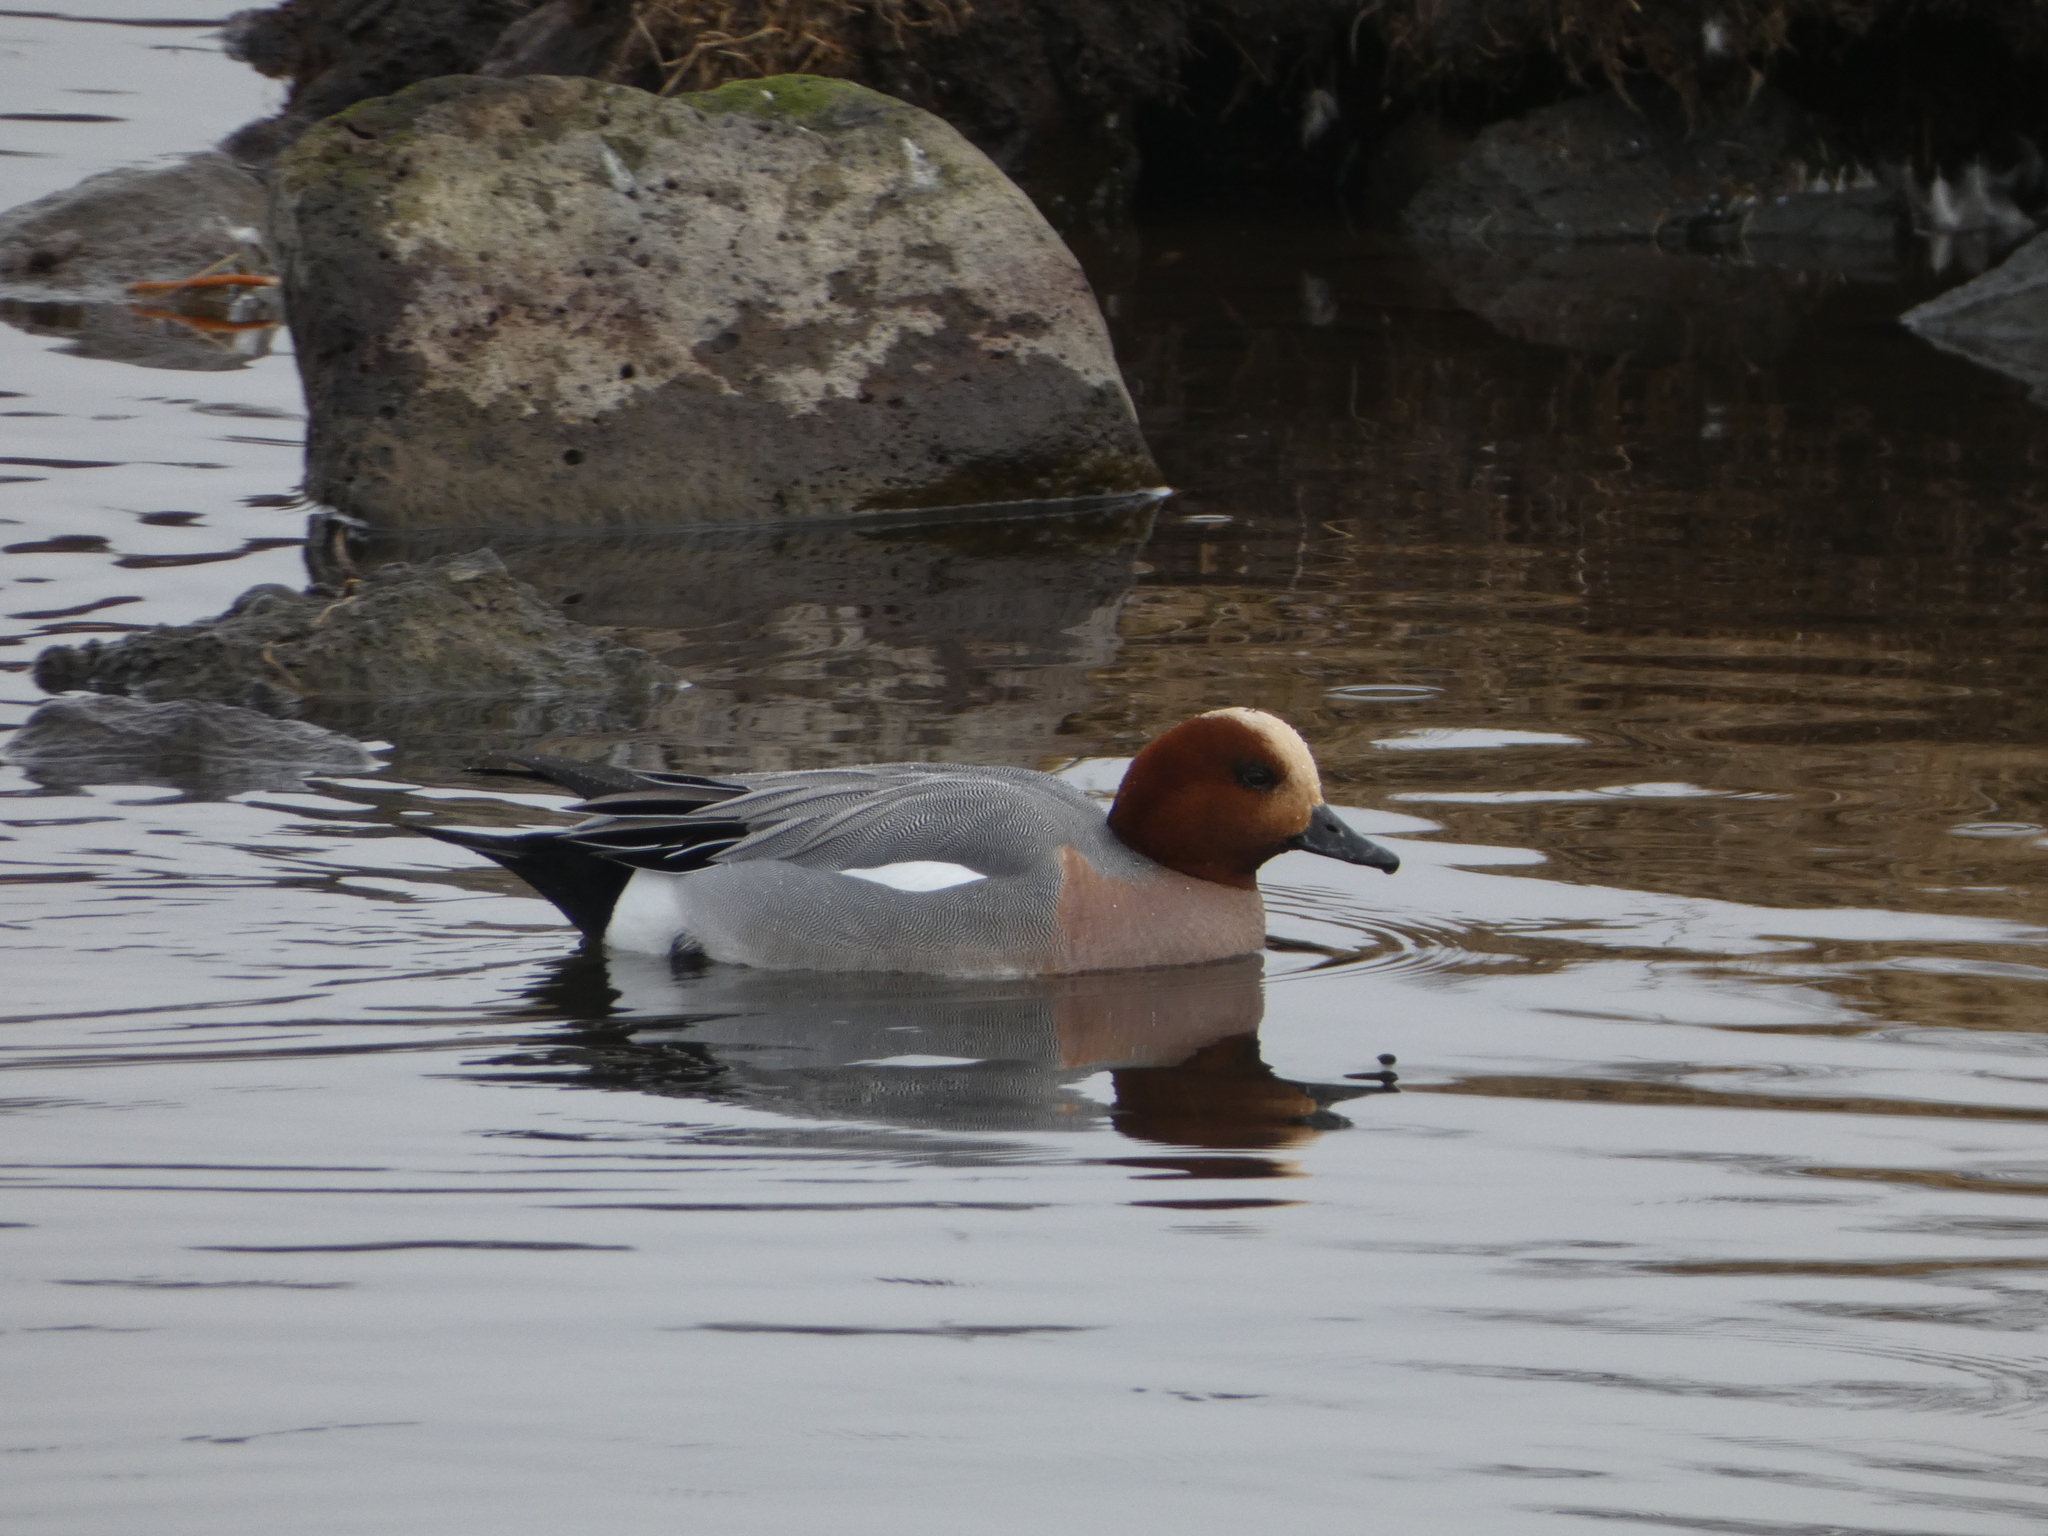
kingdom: Animalia
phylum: Chordata
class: Aves
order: Anseriformes
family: Anatidae
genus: Mareca
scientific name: Mareca penelope
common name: Eurasian wigeon
